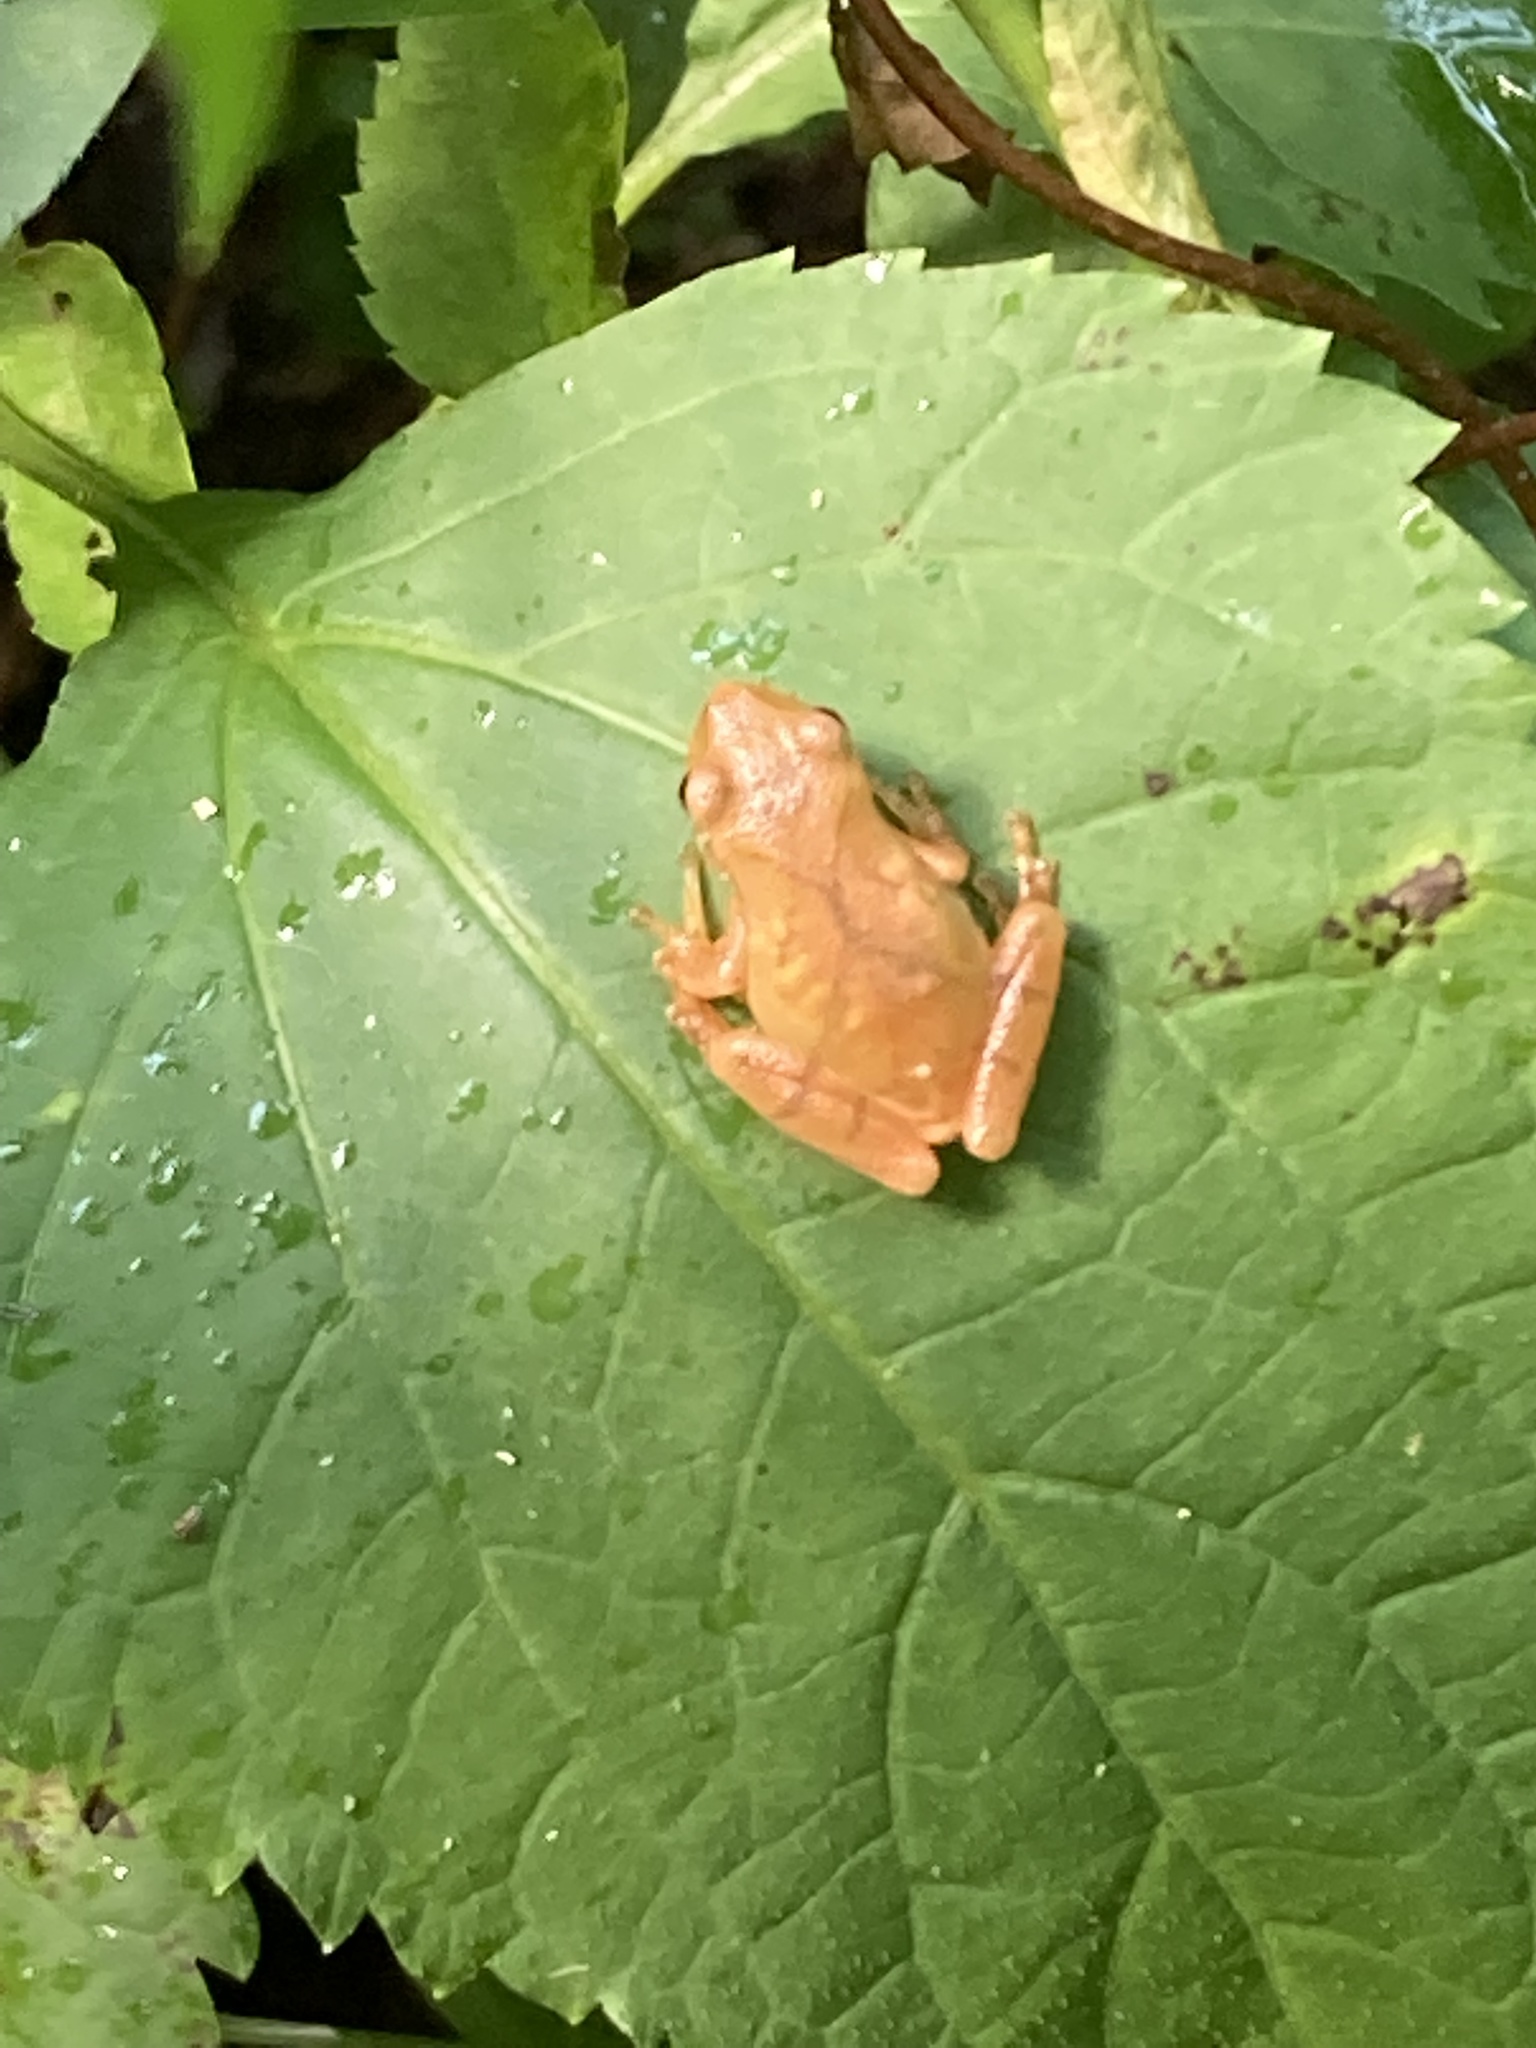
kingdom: Animalia
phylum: Chordata
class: Amphibia
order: Anura
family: Hylidae
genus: Pseudacris
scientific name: Pseudacris crucifer
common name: Spring peeper
